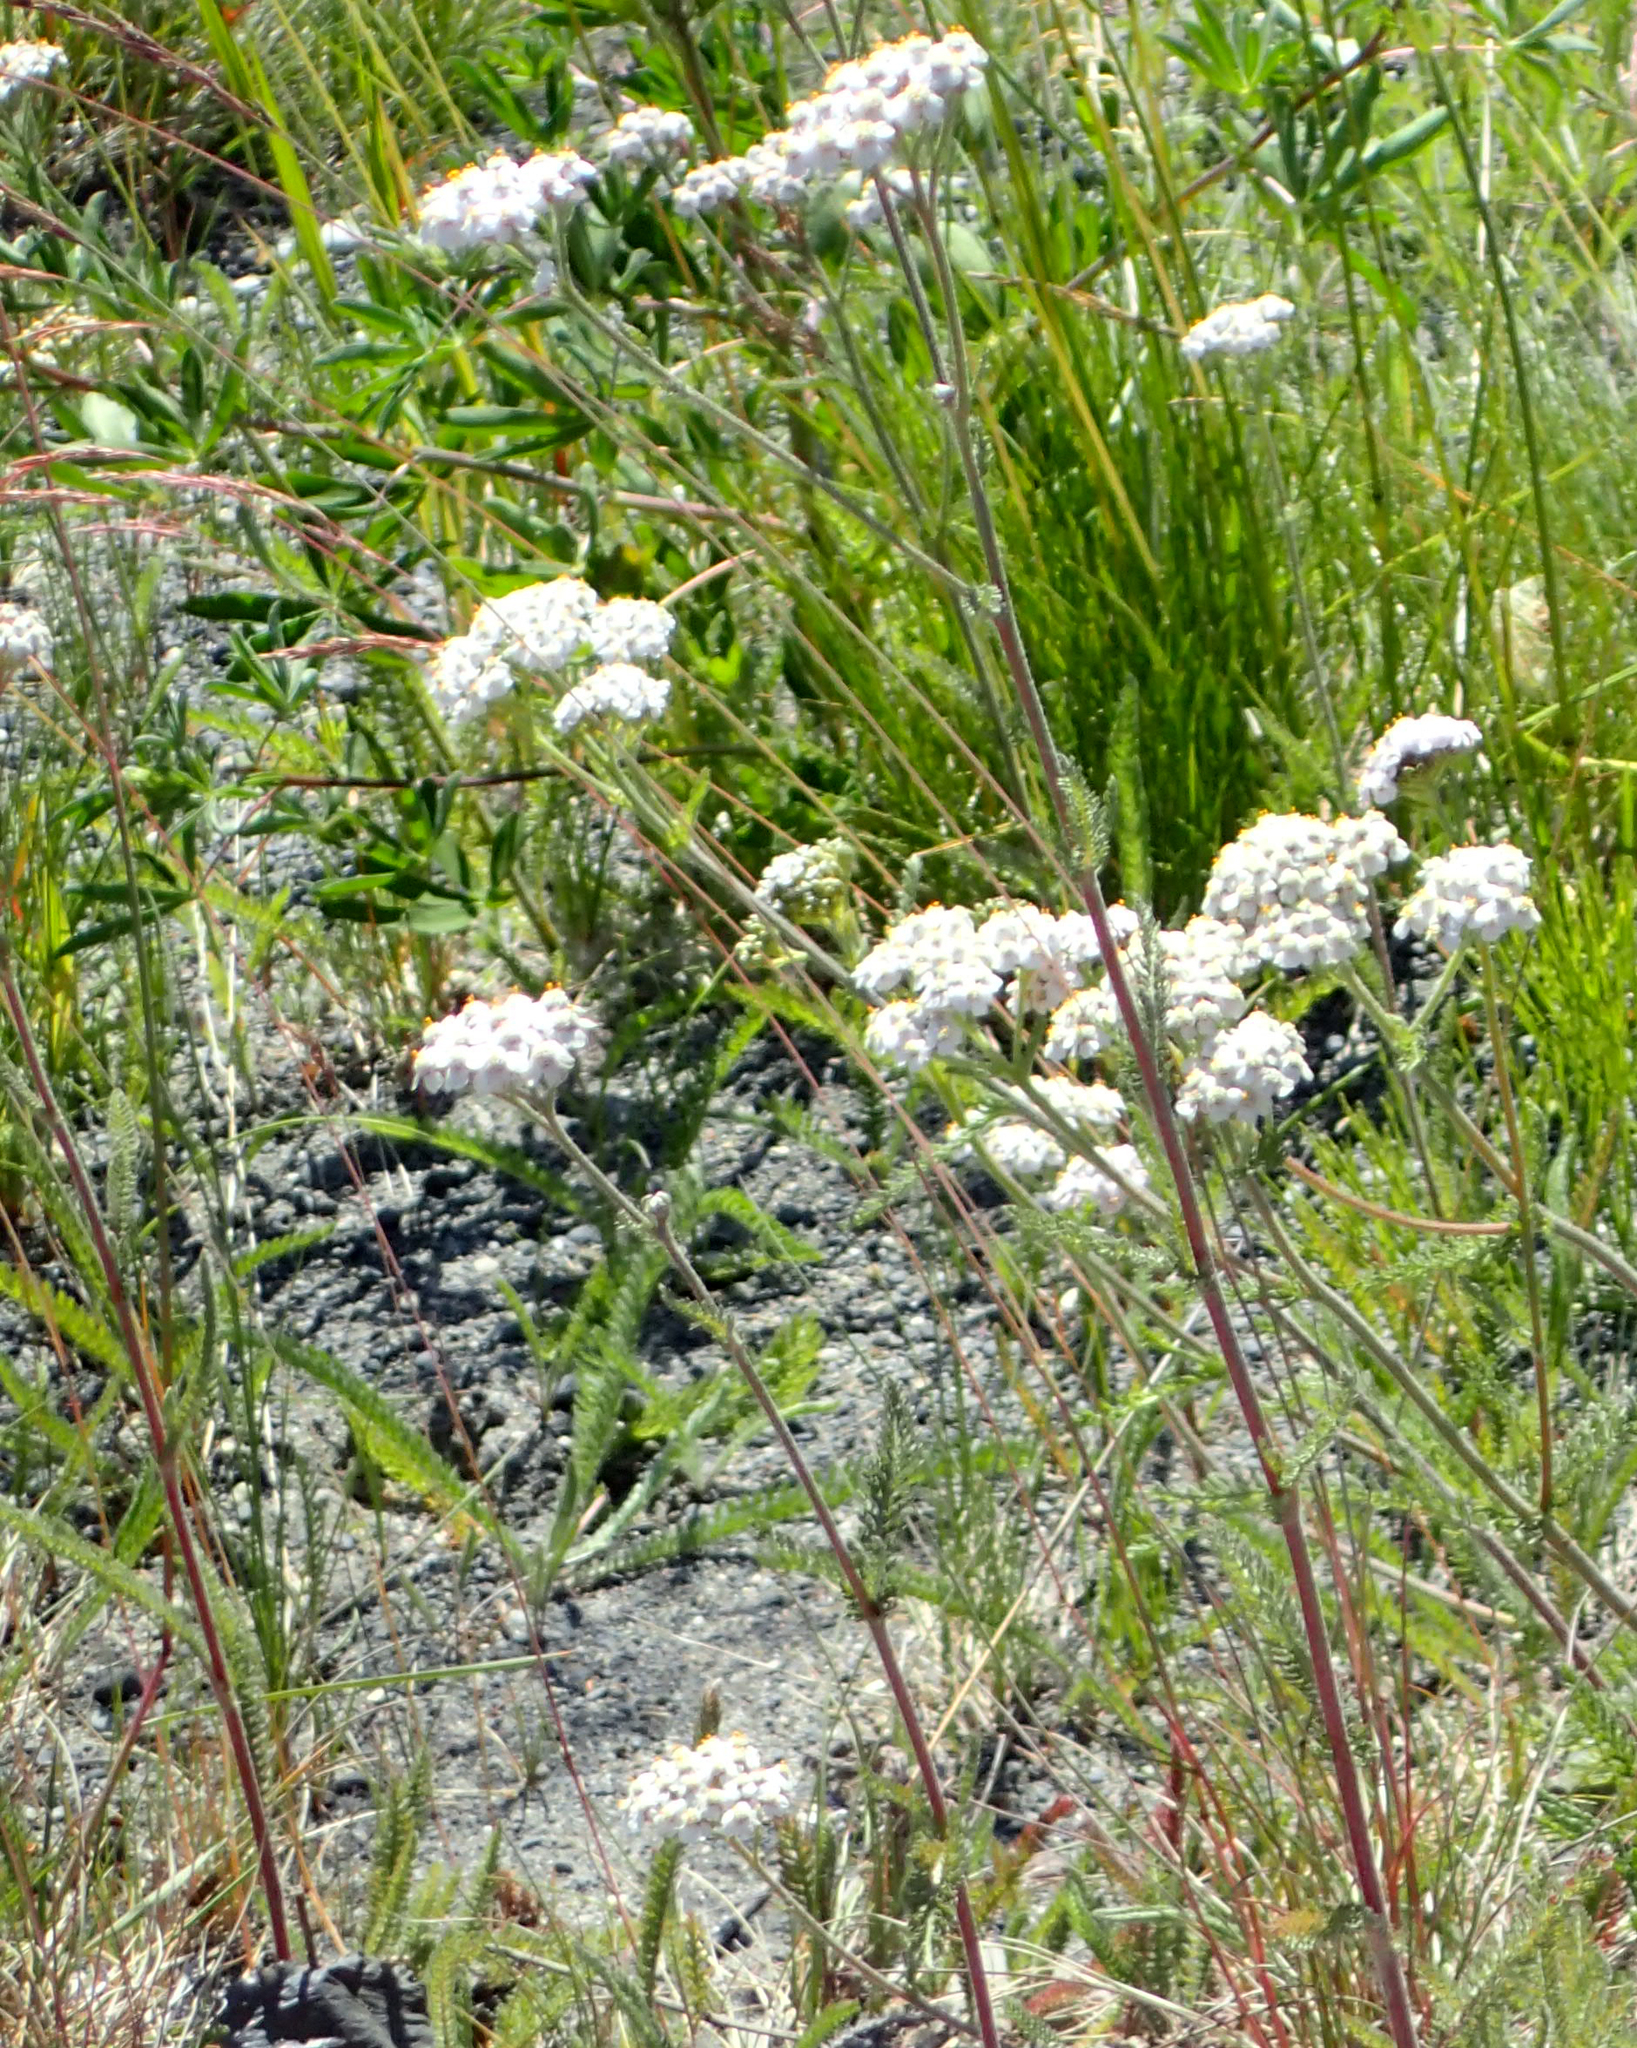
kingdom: Plantae
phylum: Tracheophyta
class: Magnoliopsida
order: Asterales
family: Asteraceae
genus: Achillea
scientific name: Achillea millefolium
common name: Yarrow
